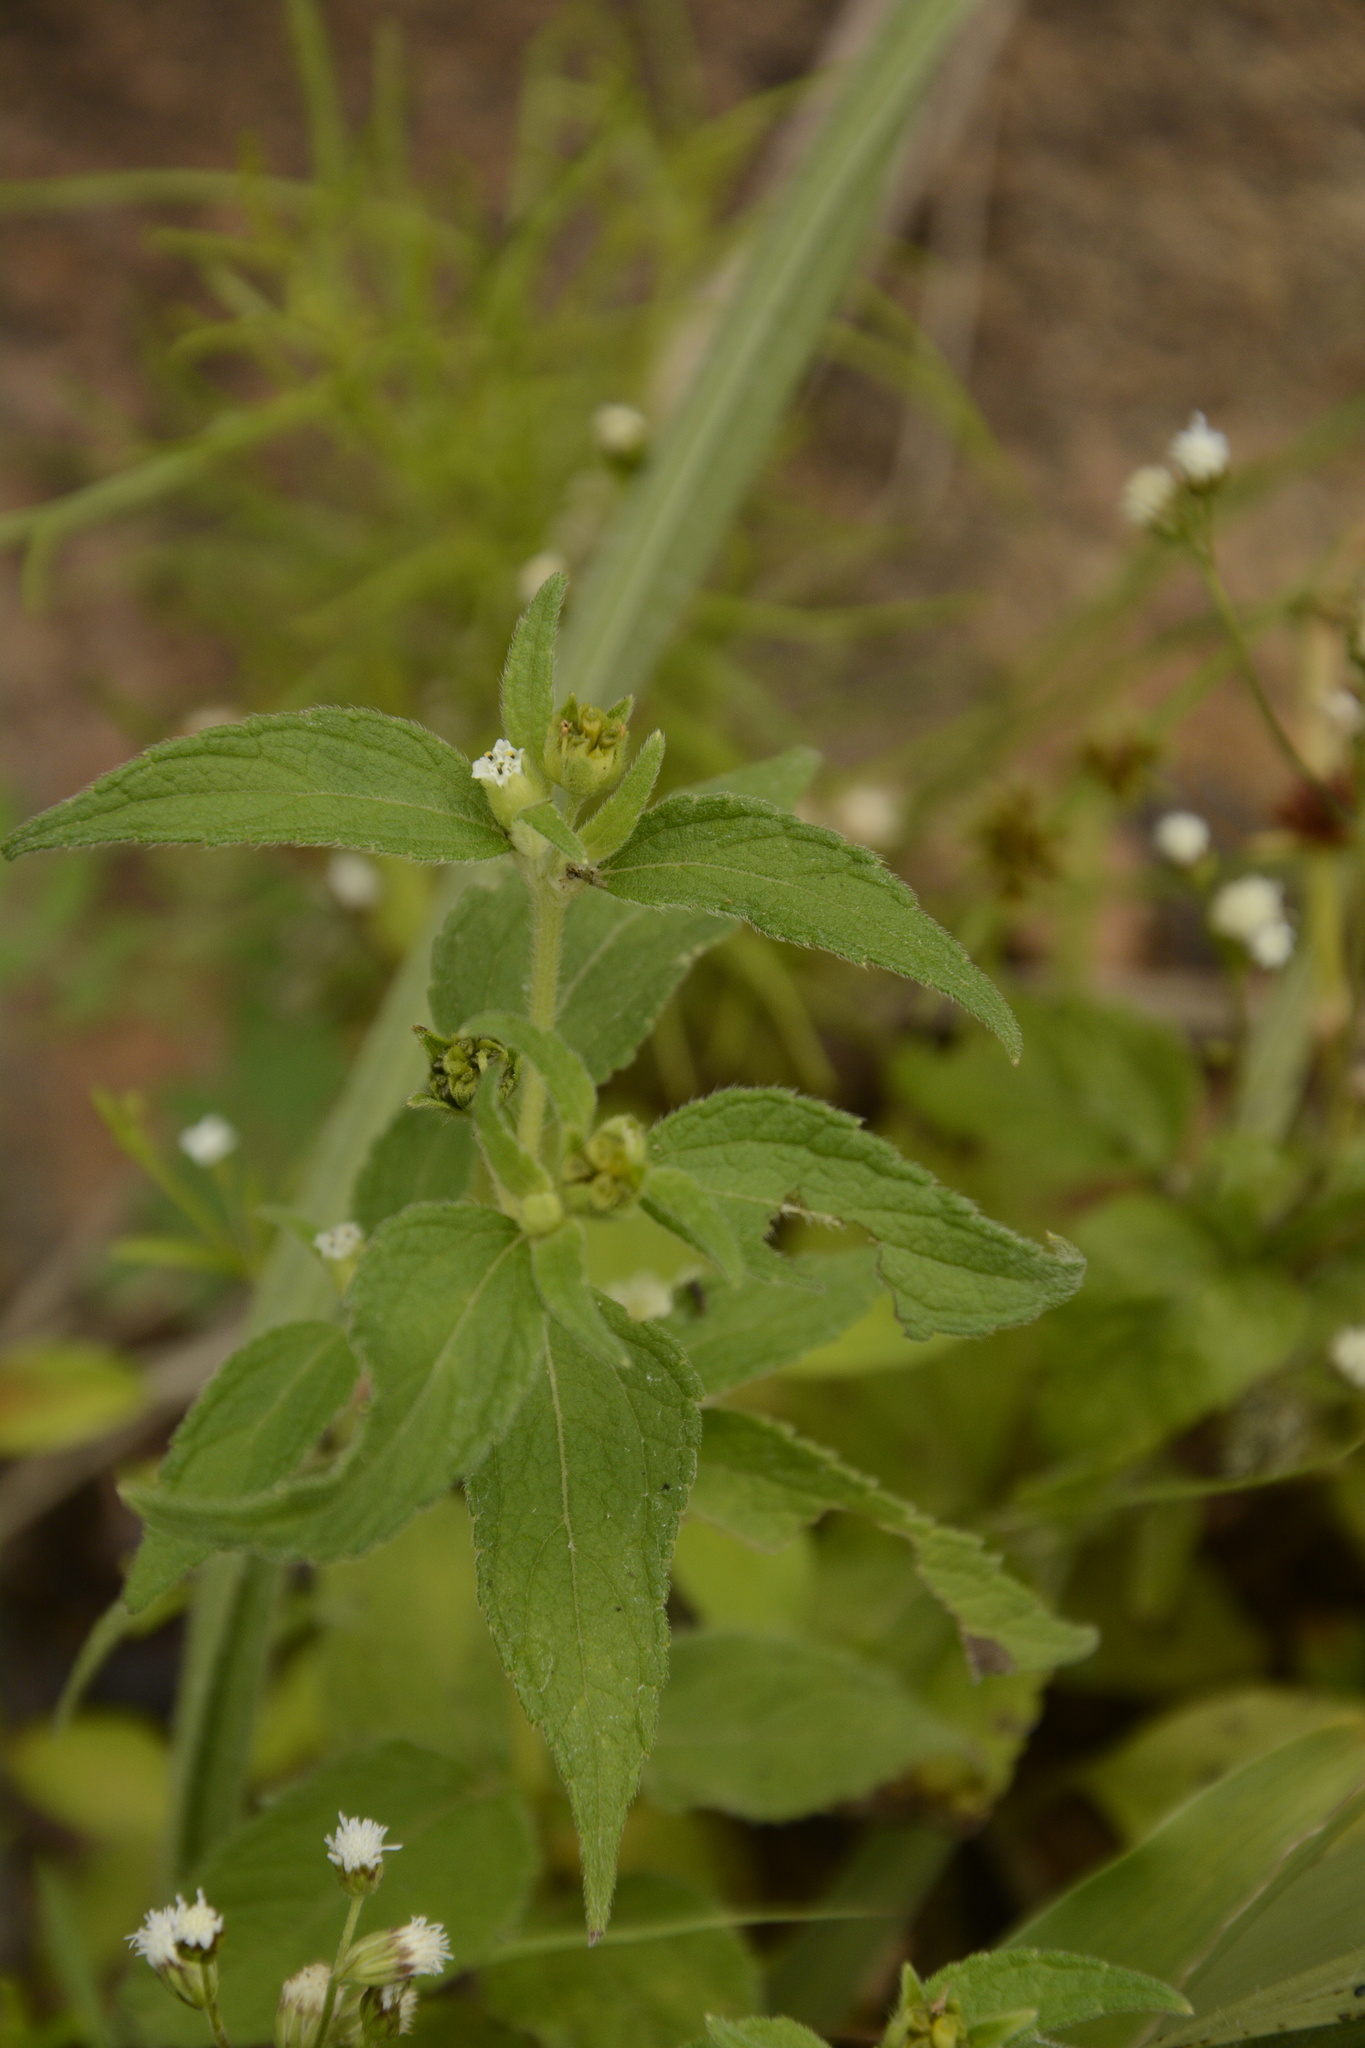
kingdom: Plantae
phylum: Tracheophyta
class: Magnoliopsida
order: Asterales
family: Asteraceae
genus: Blainvillea
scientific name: Blainvillea acmella
